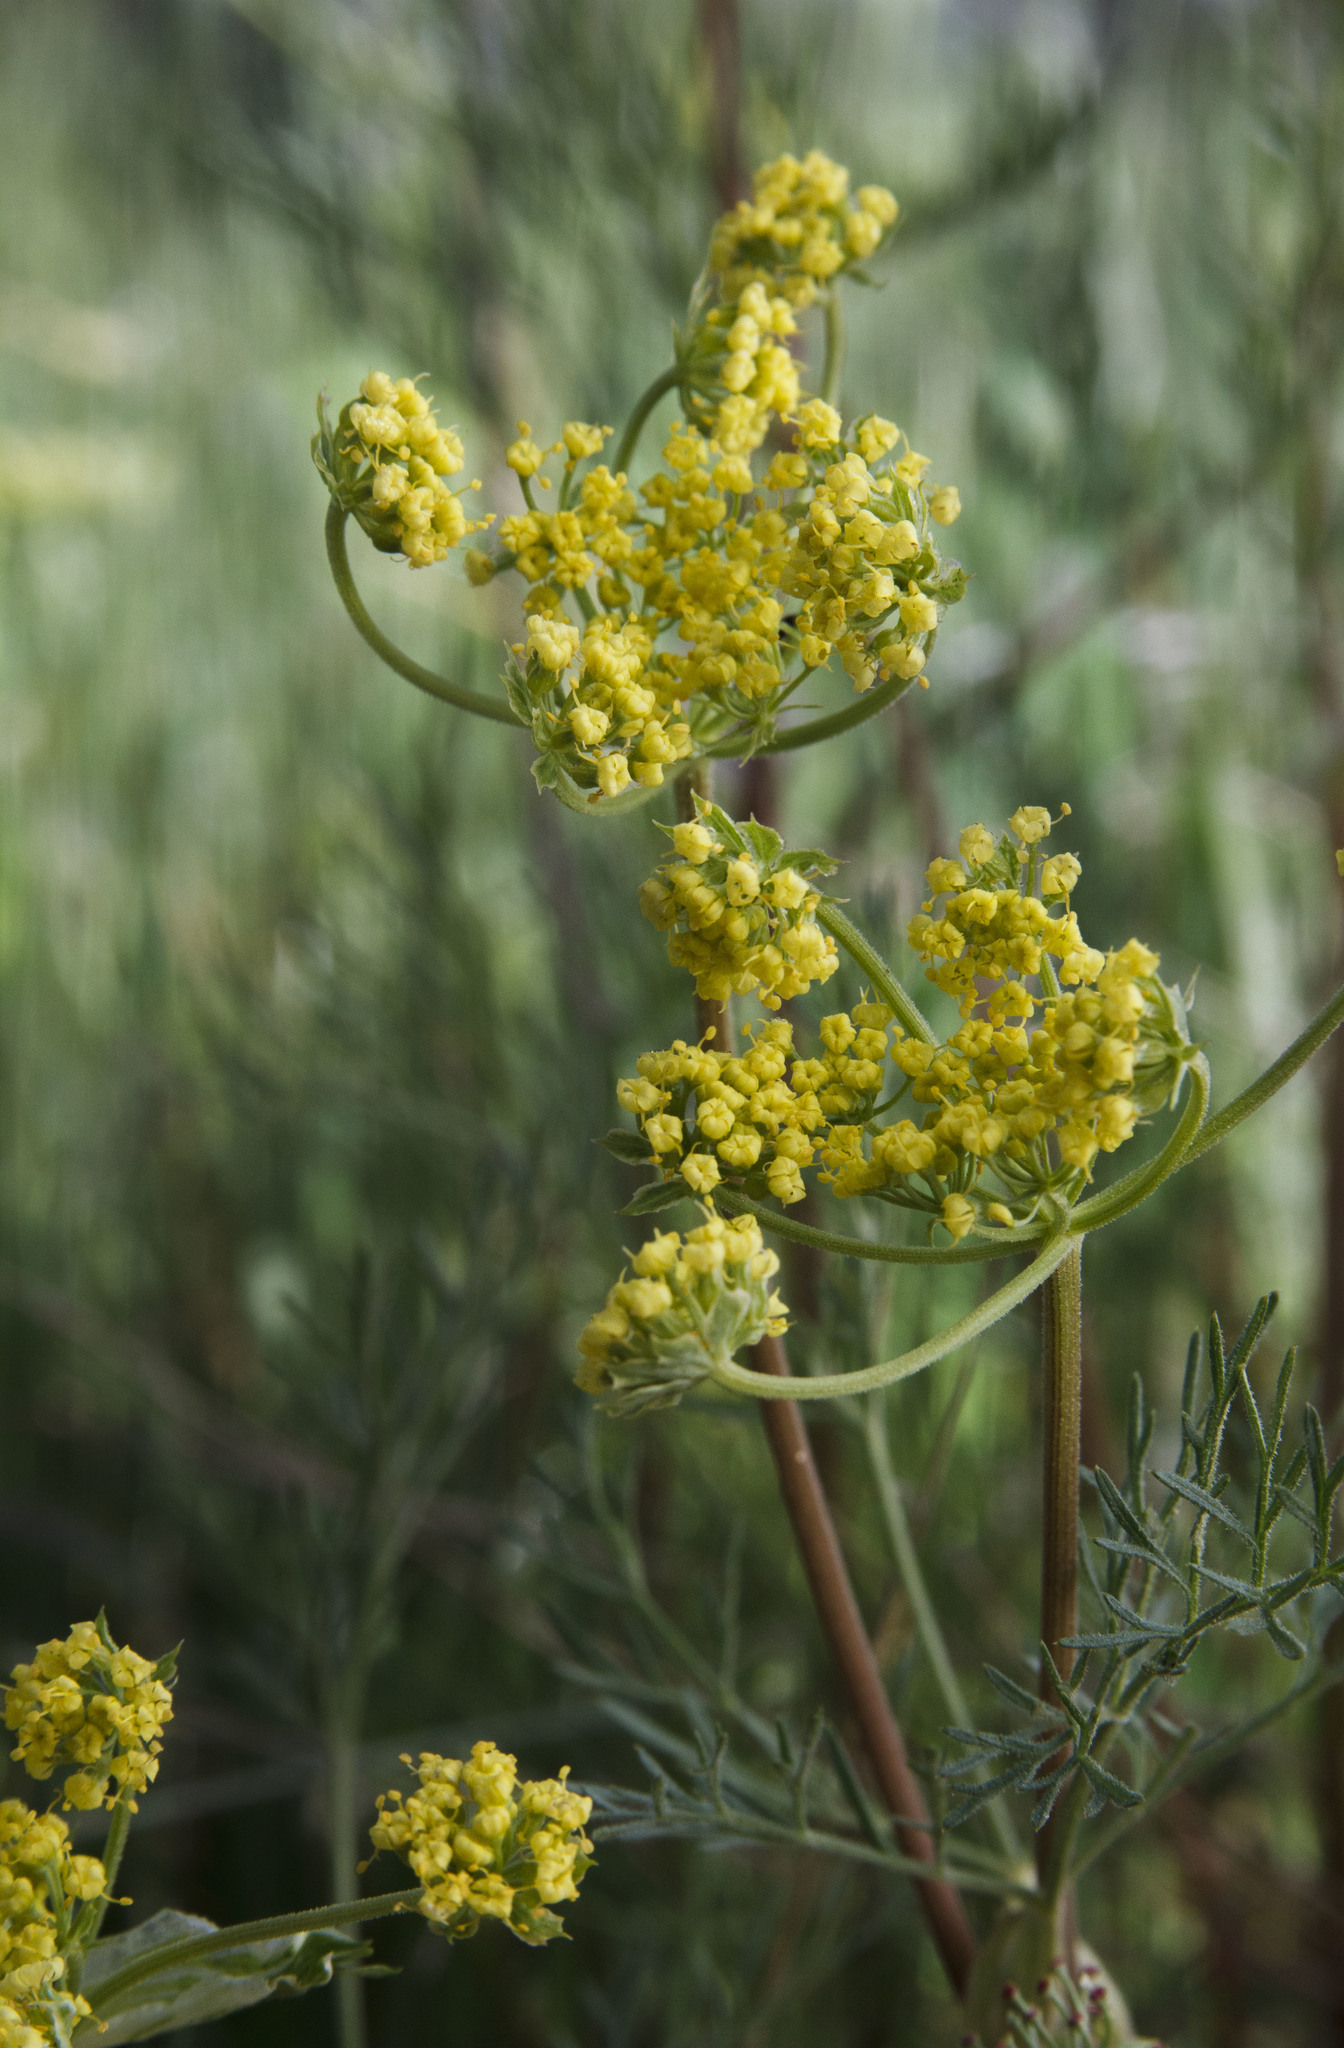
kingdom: Plantae
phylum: Tracheophyta
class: Magnoliopsida
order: Apiales
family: Apiaceae
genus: Lomatium
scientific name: Lomatium utriculatum
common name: Fine-leaf desert-parsley
